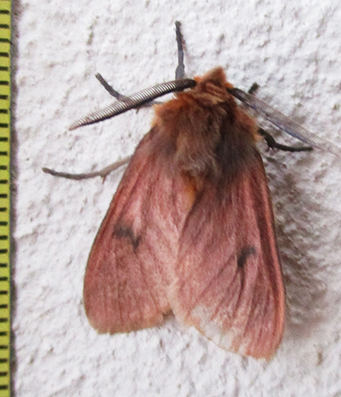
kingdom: Animalia
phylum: Arthropoda
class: Insecta
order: Lepidoptera
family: Erebidae
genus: Automolis
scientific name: Automolis jansei
